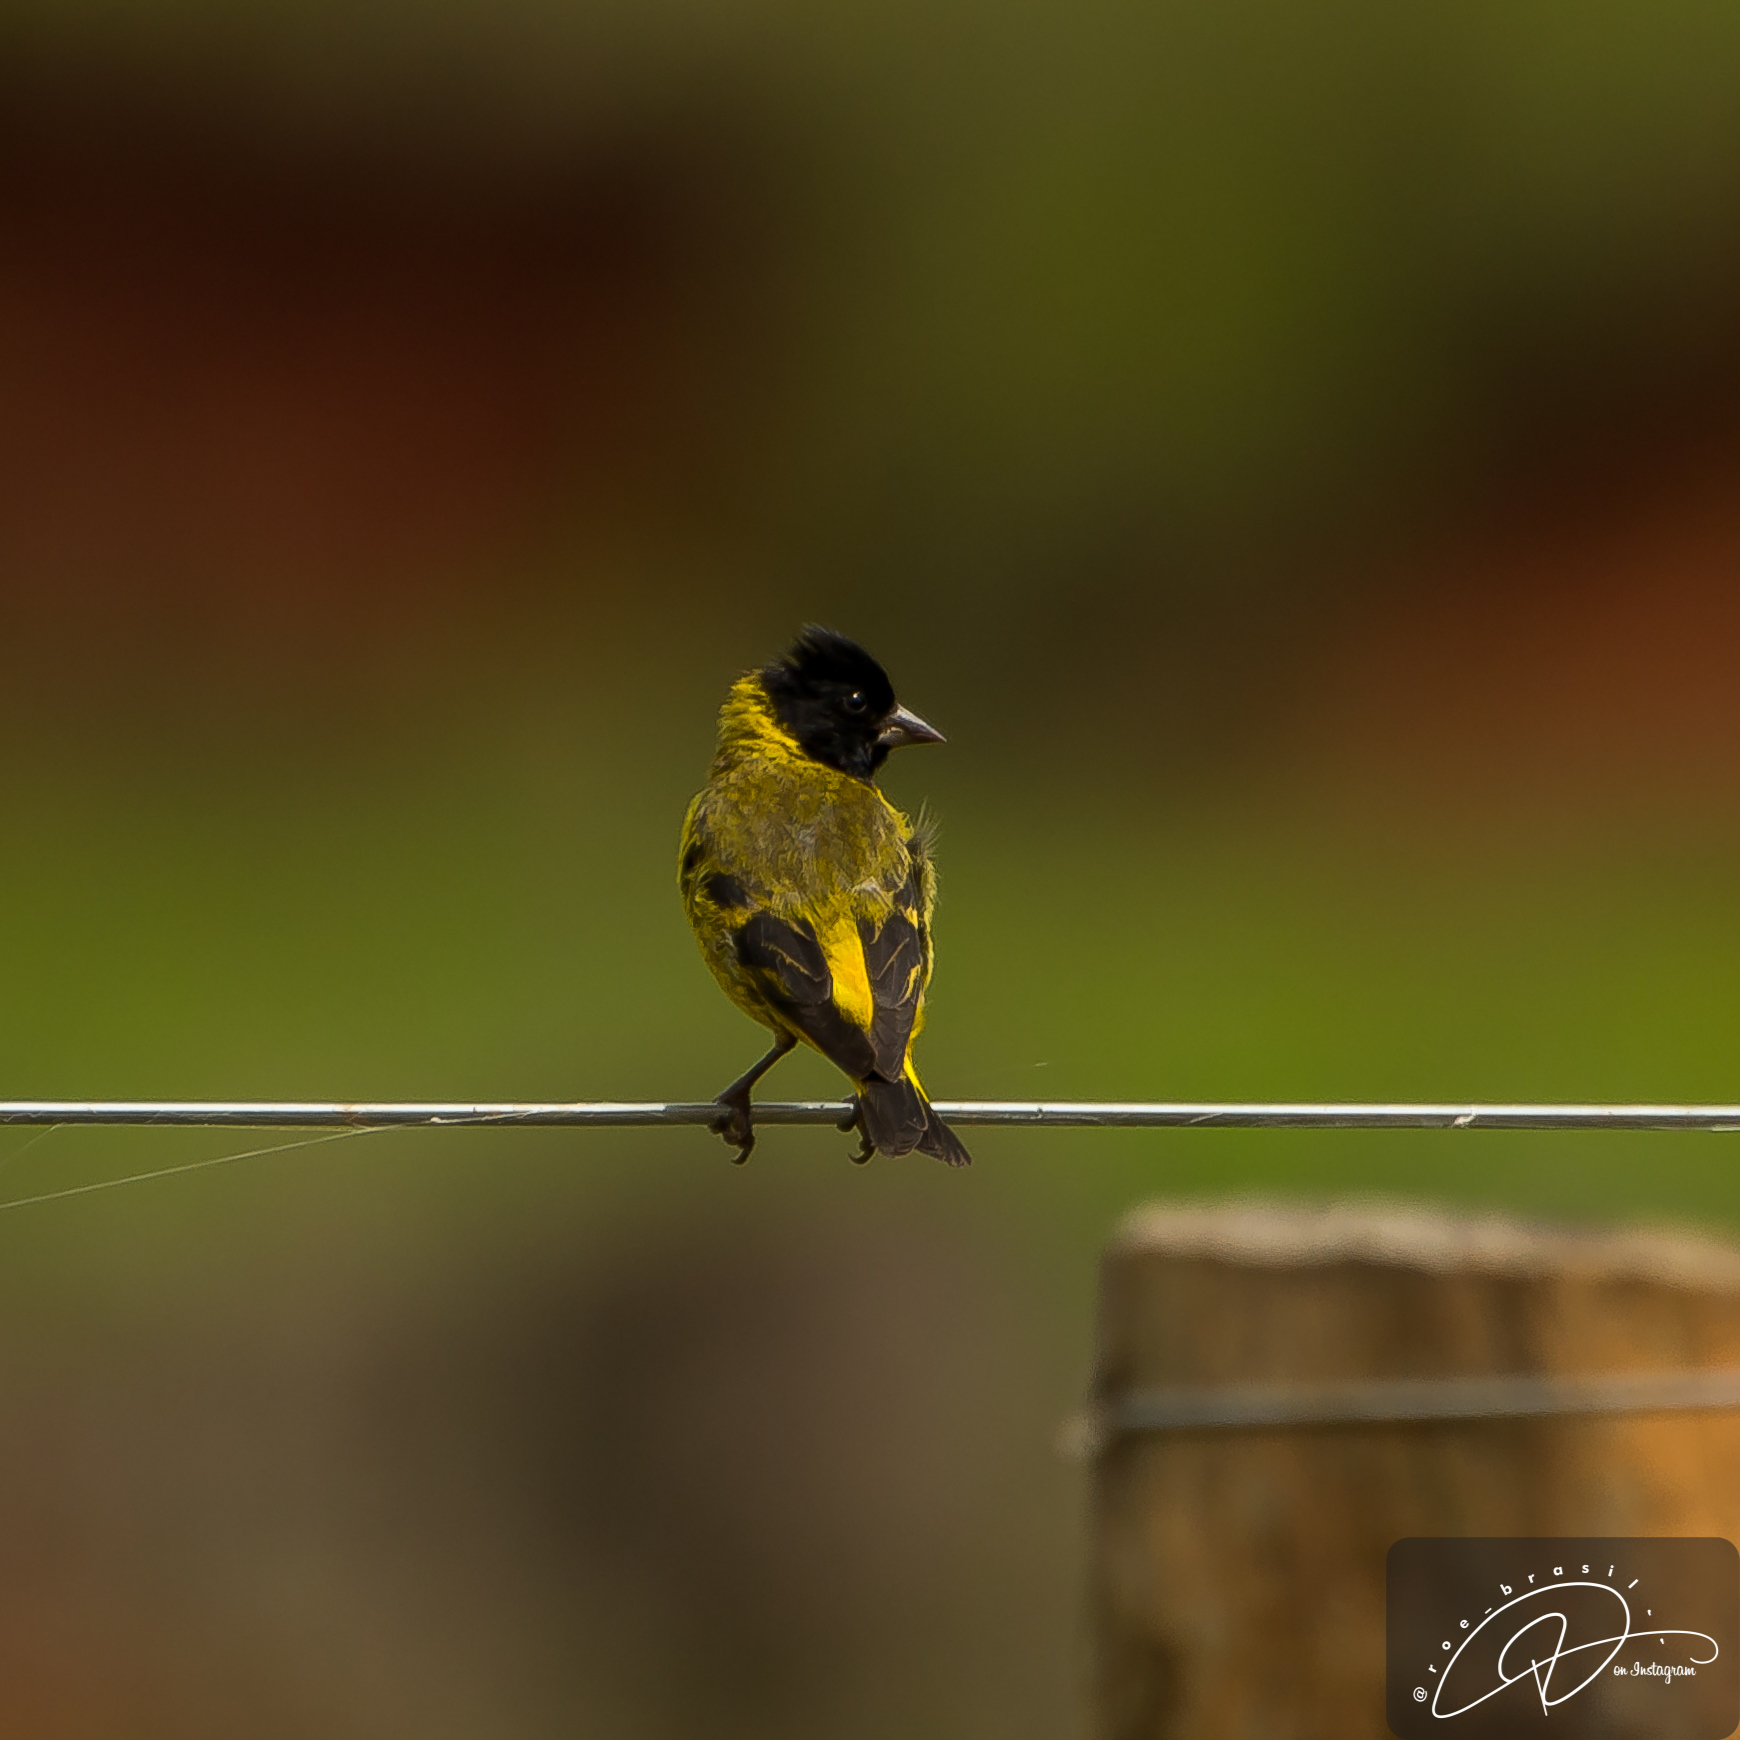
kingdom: Animalia
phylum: Chordata
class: Aves
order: Passeriformes
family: Fringillidae
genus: Spinus
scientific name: Spinus magellanicus
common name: Hooded siskin
